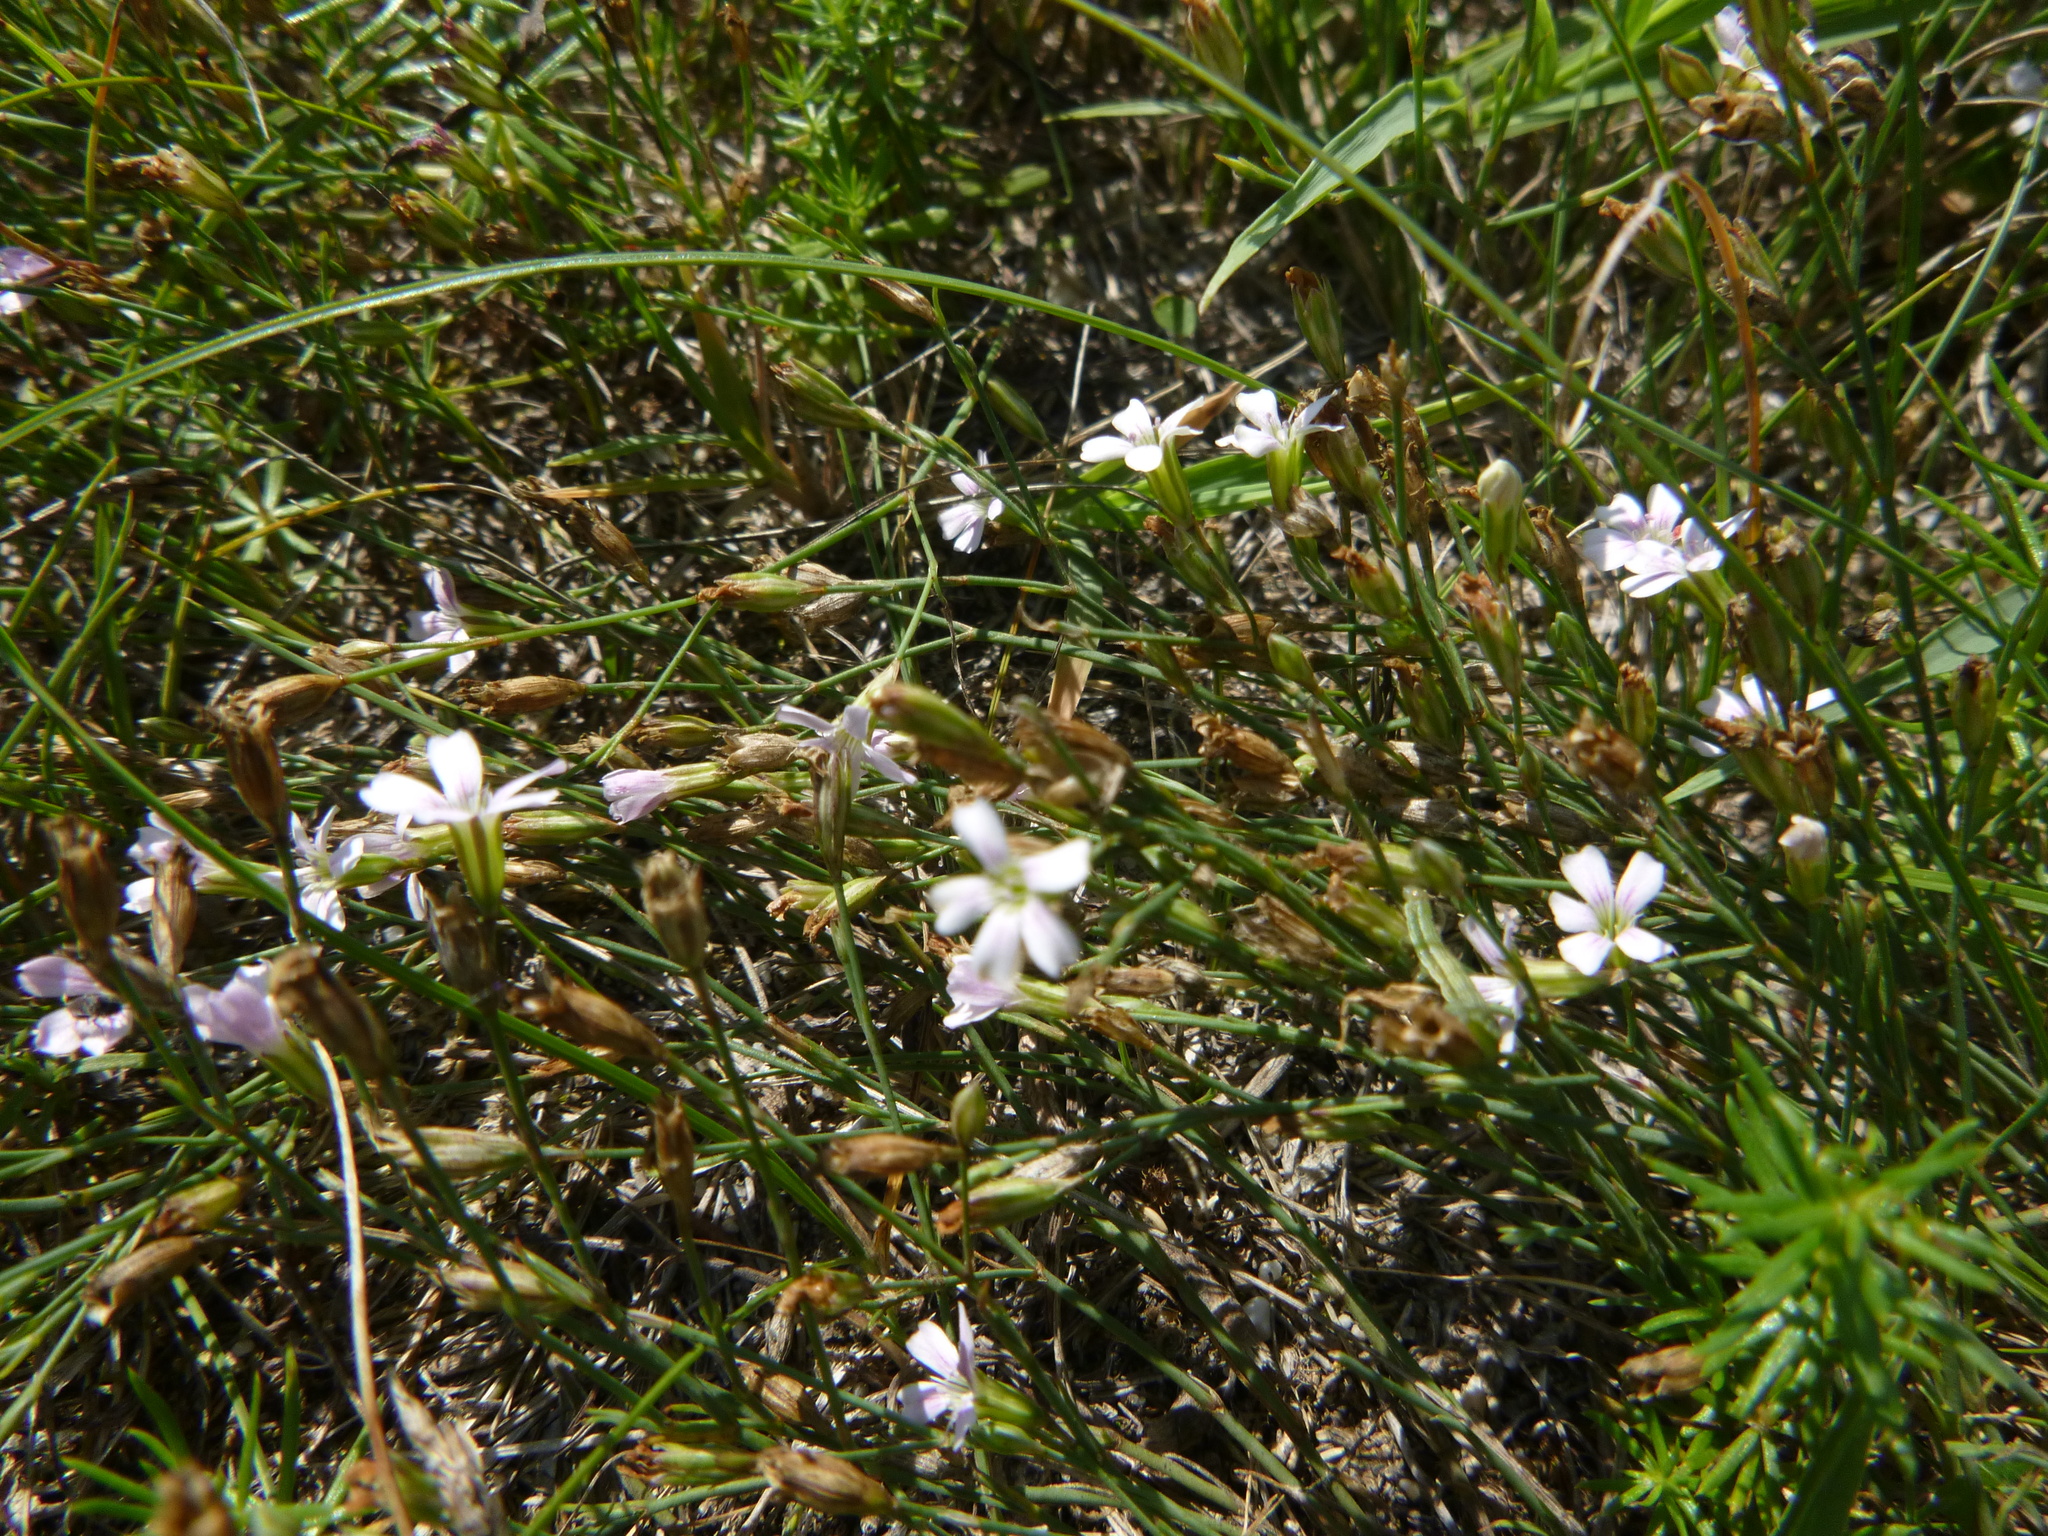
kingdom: Plantae
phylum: Tracheophyta
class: Magnoliopsida
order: Caryophyllales
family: Caryophyllaceae
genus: Petrorhagia
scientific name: Petrorhagia saxifraga
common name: Tunicflower
